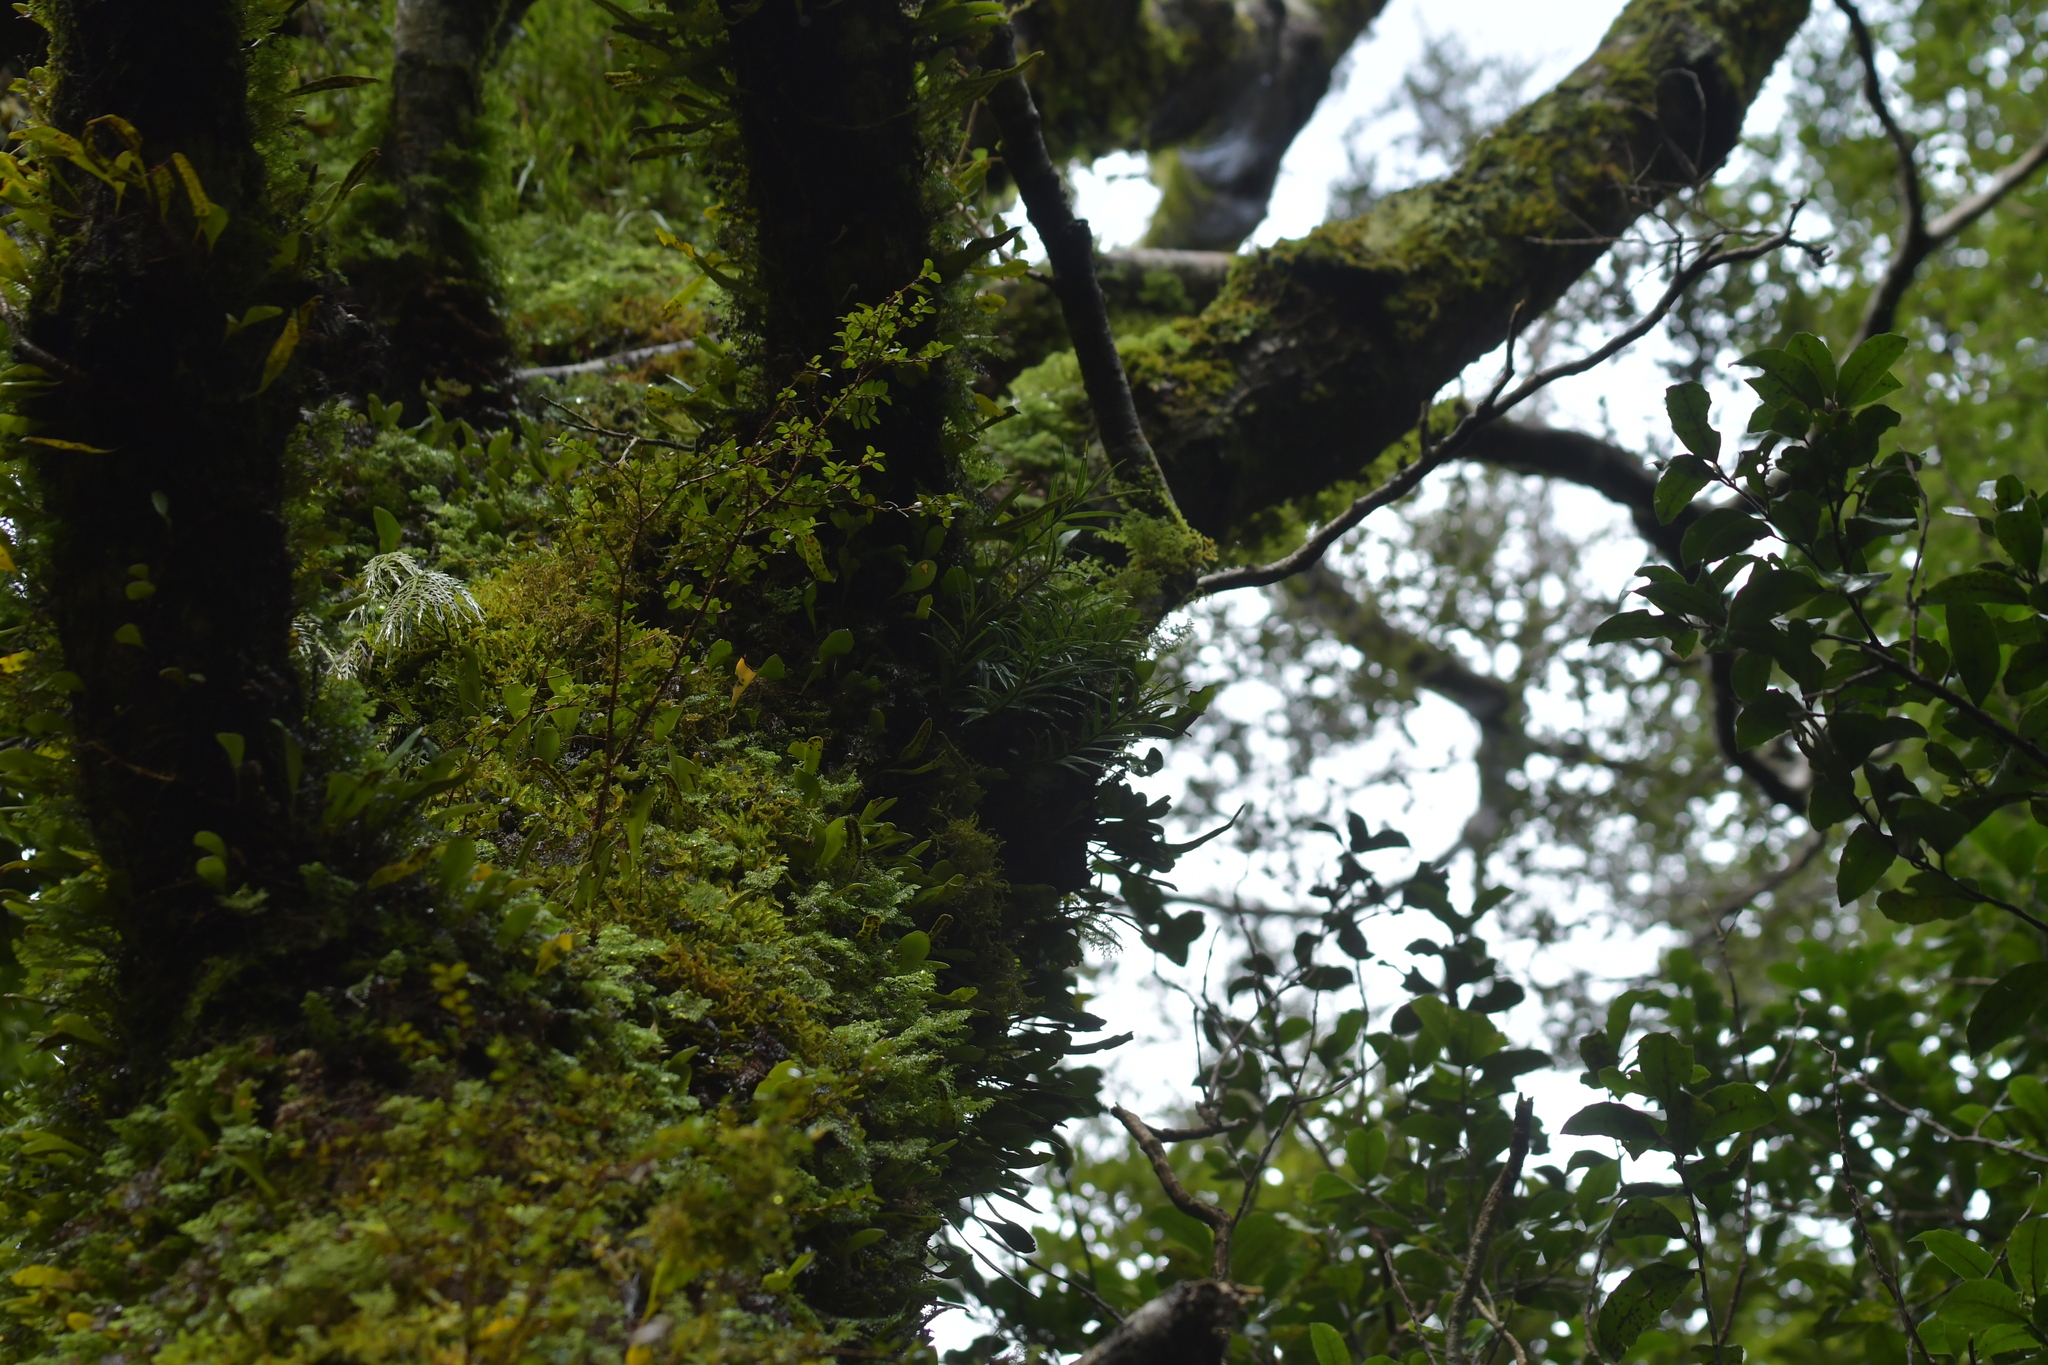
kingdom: Plantae
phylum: Tracheophyta
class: Liliopsida
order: Asparagales
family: Orchidaceae
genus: Earina
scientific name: Earina autumnalis
